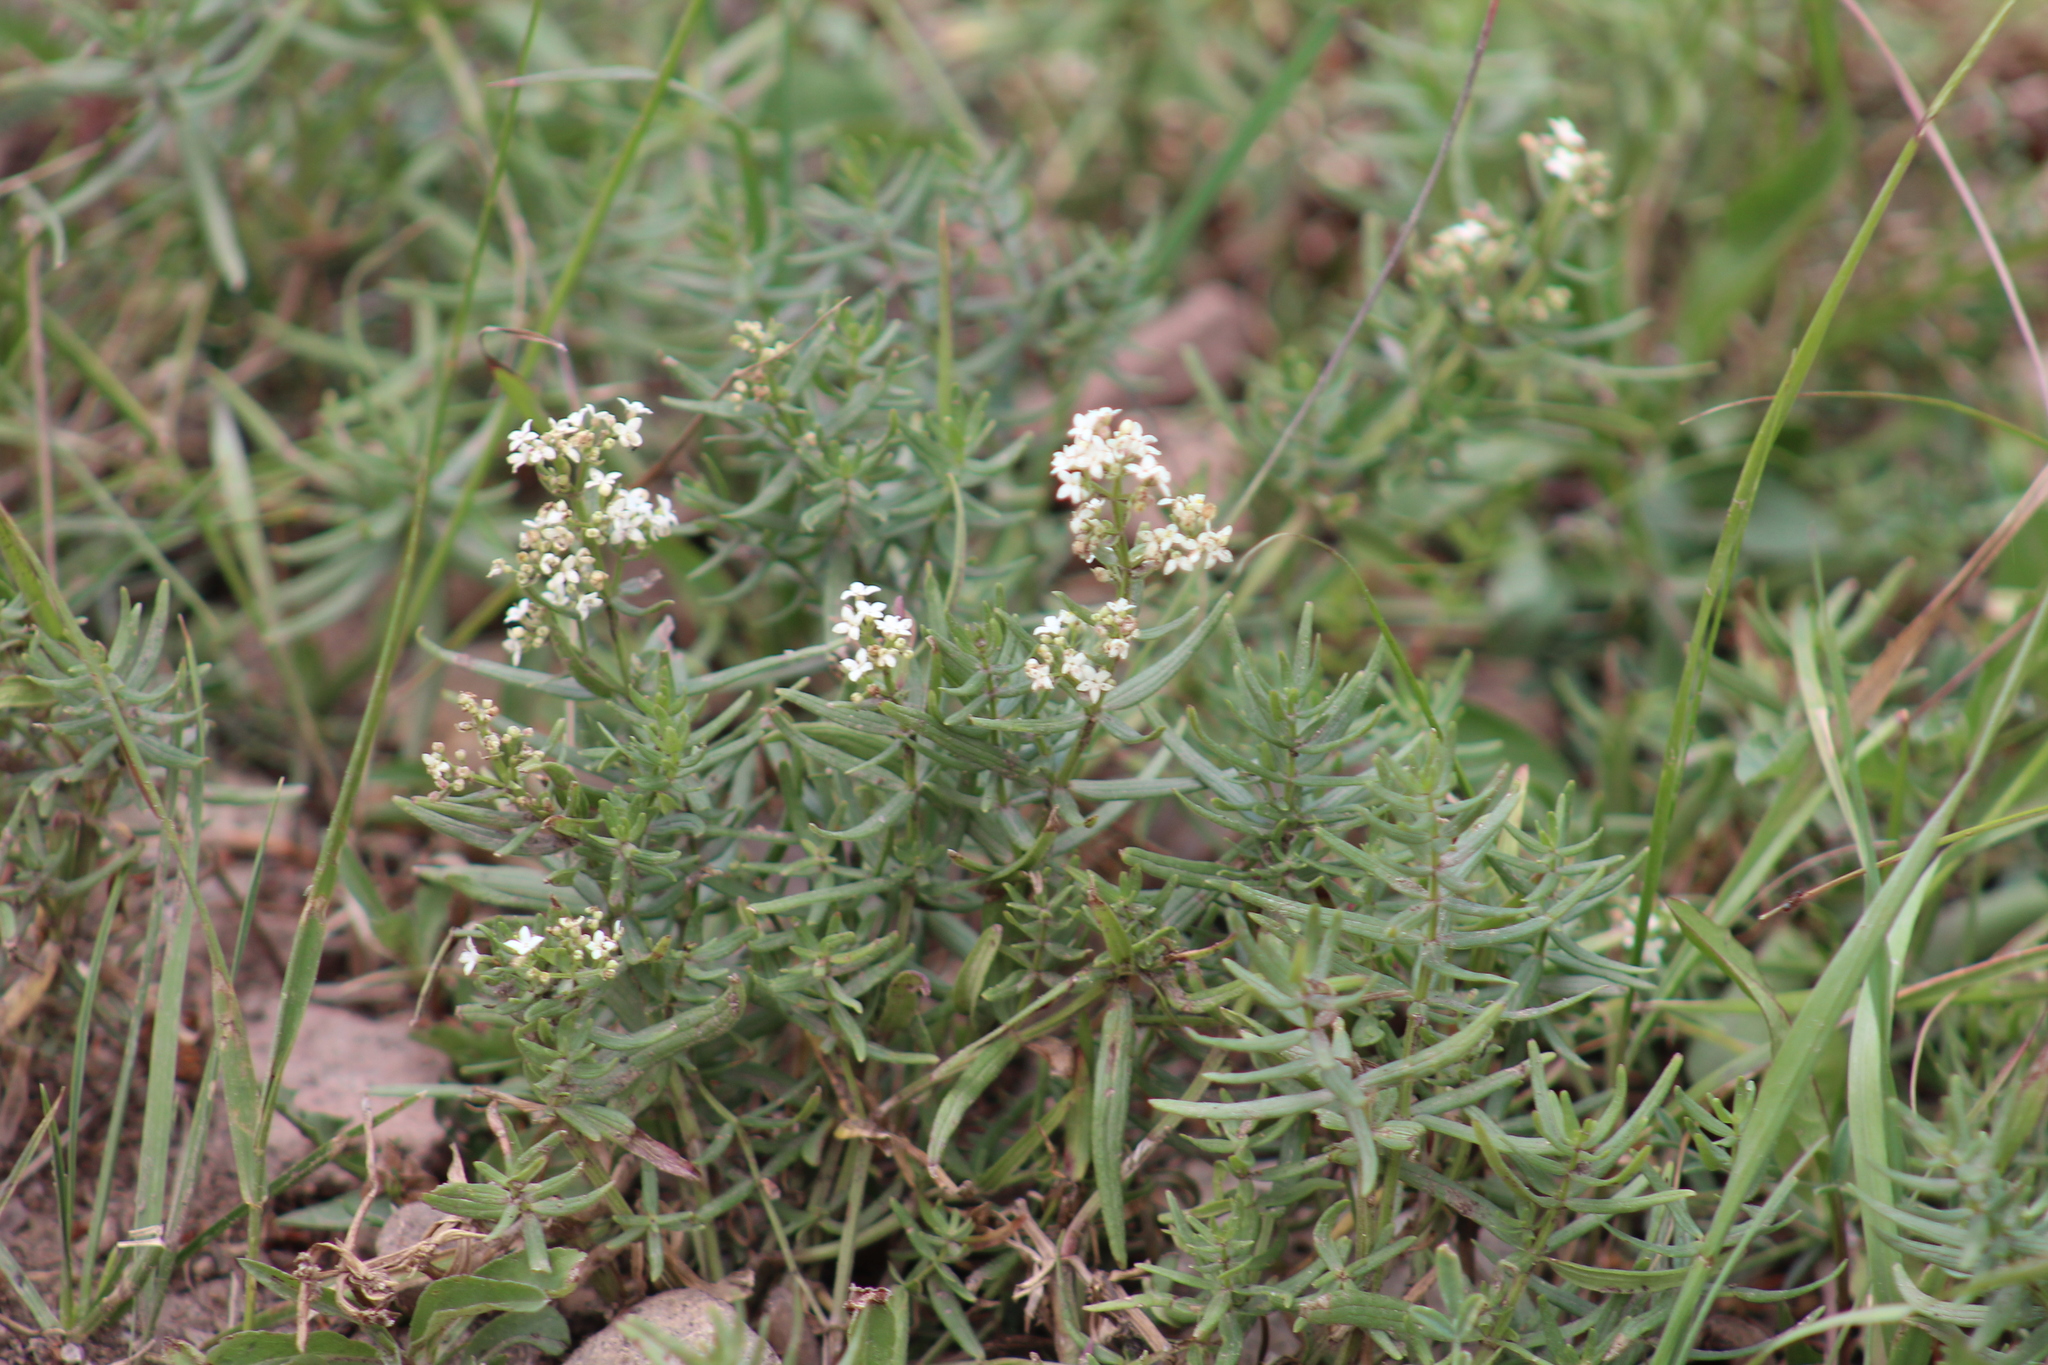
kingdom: Plantae
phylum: Tracheophyta
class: Magnoliopsida
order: Gentianales
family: Rubiaceae
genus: Galium
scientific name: Galium boreale
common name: Northern bedstraw
